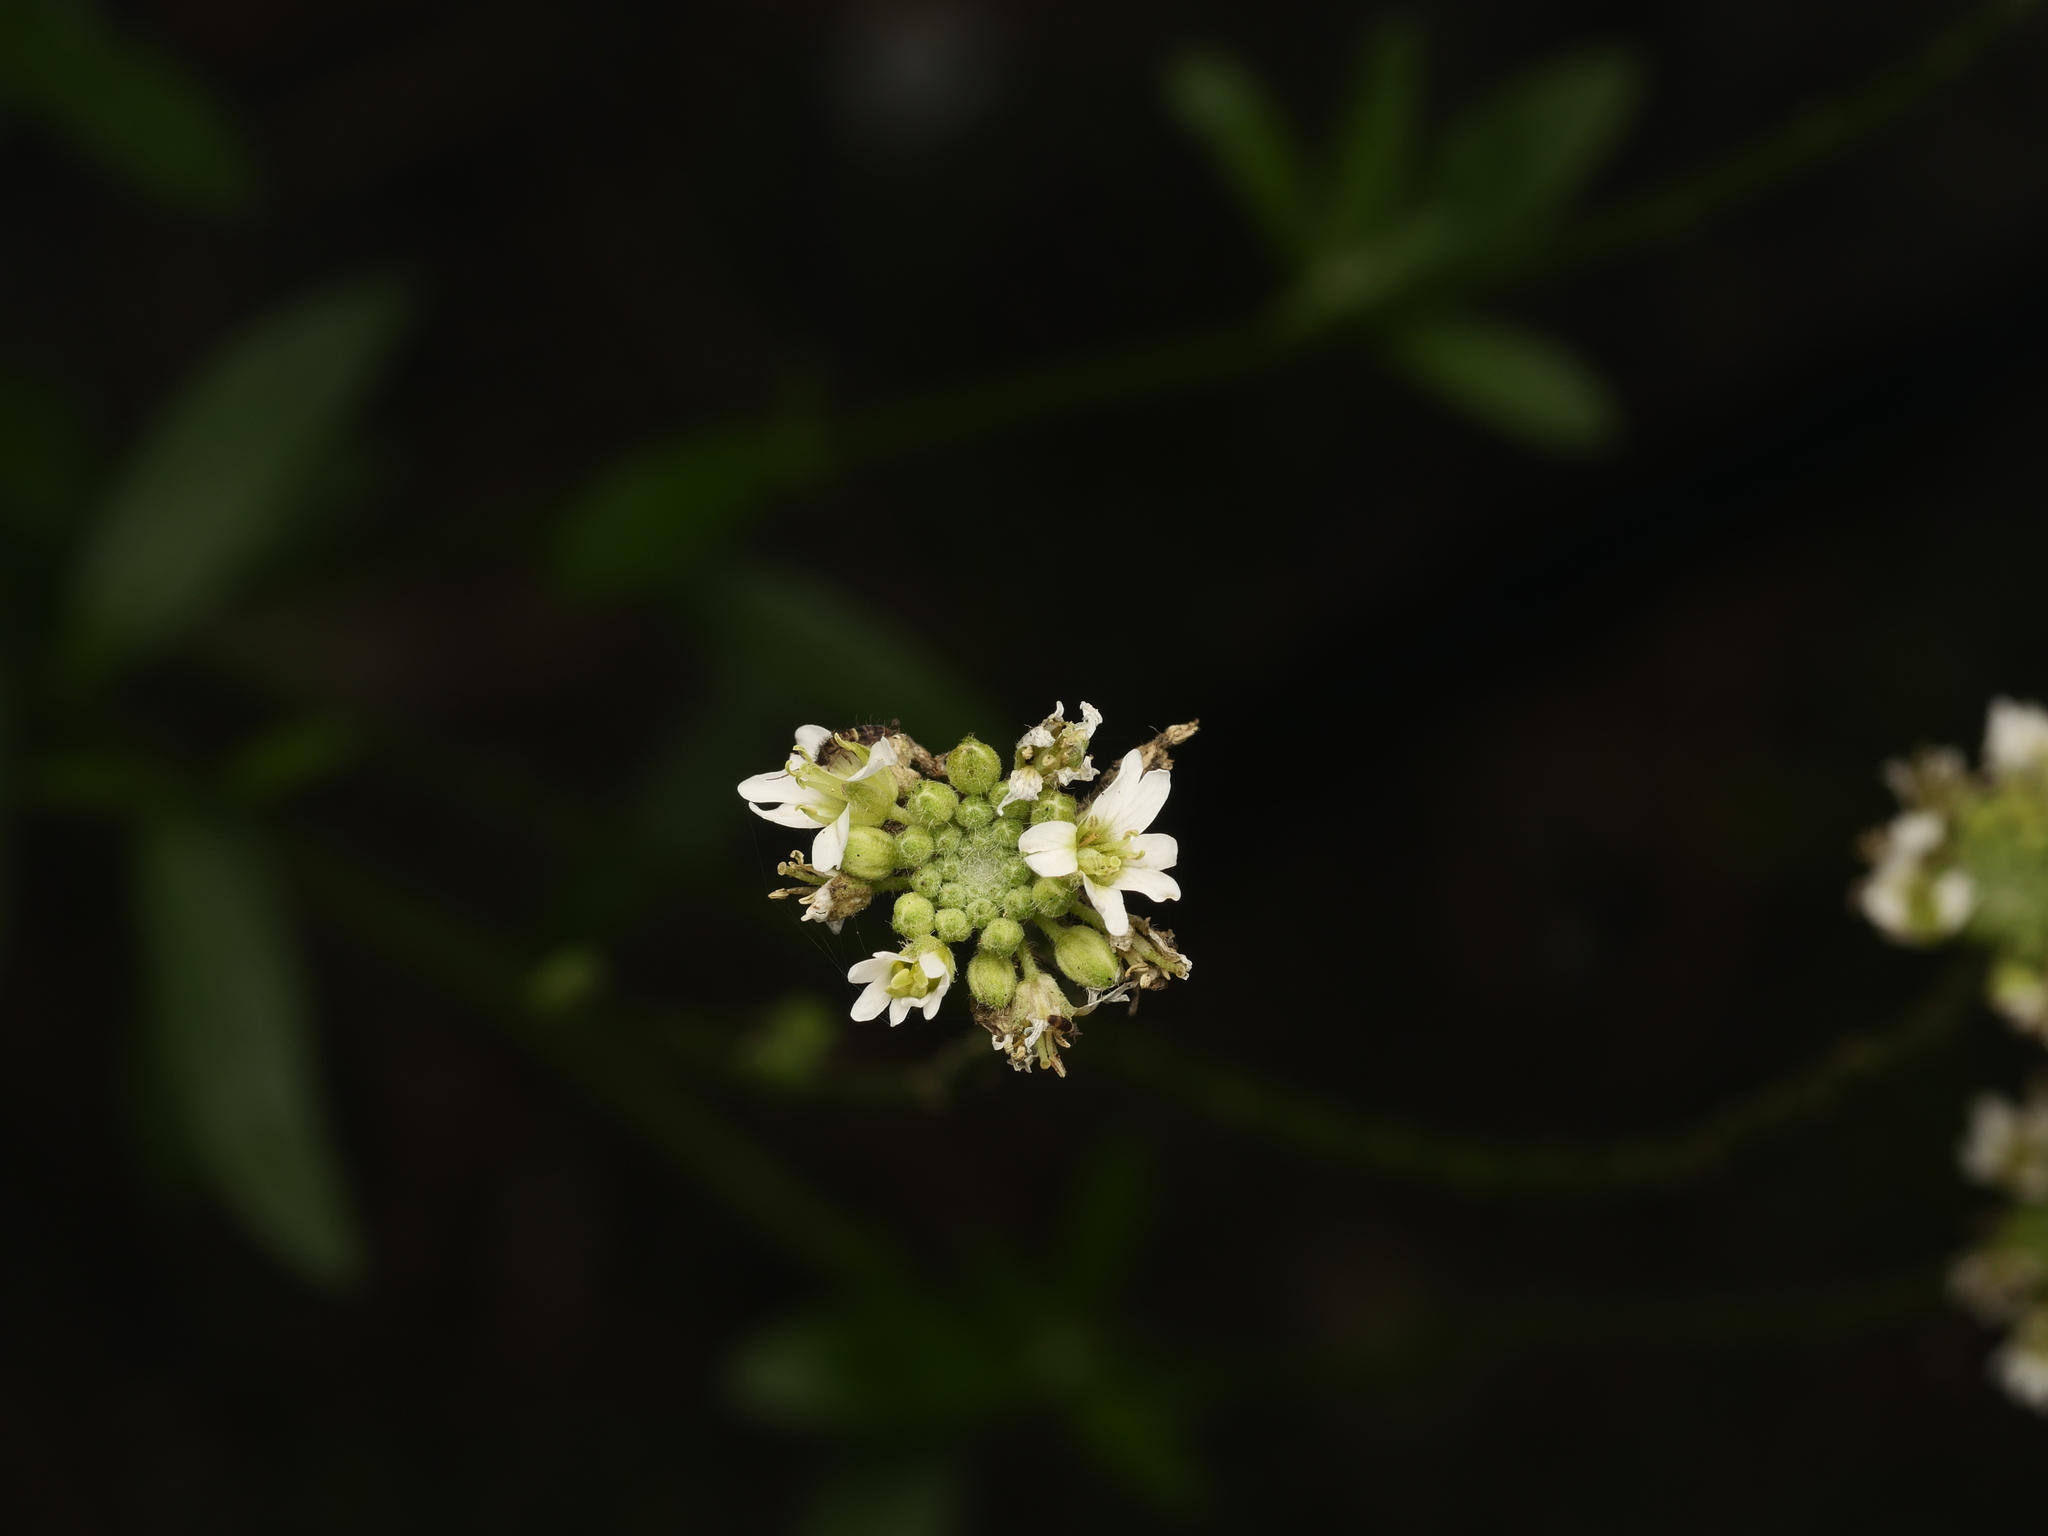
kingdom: Plantae
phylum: Tracheophyta
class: Magnoliopsida
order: Brassicales
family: Brassicaceae
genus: Berteroa
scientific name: Berteroa incana
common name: Hoary alison
